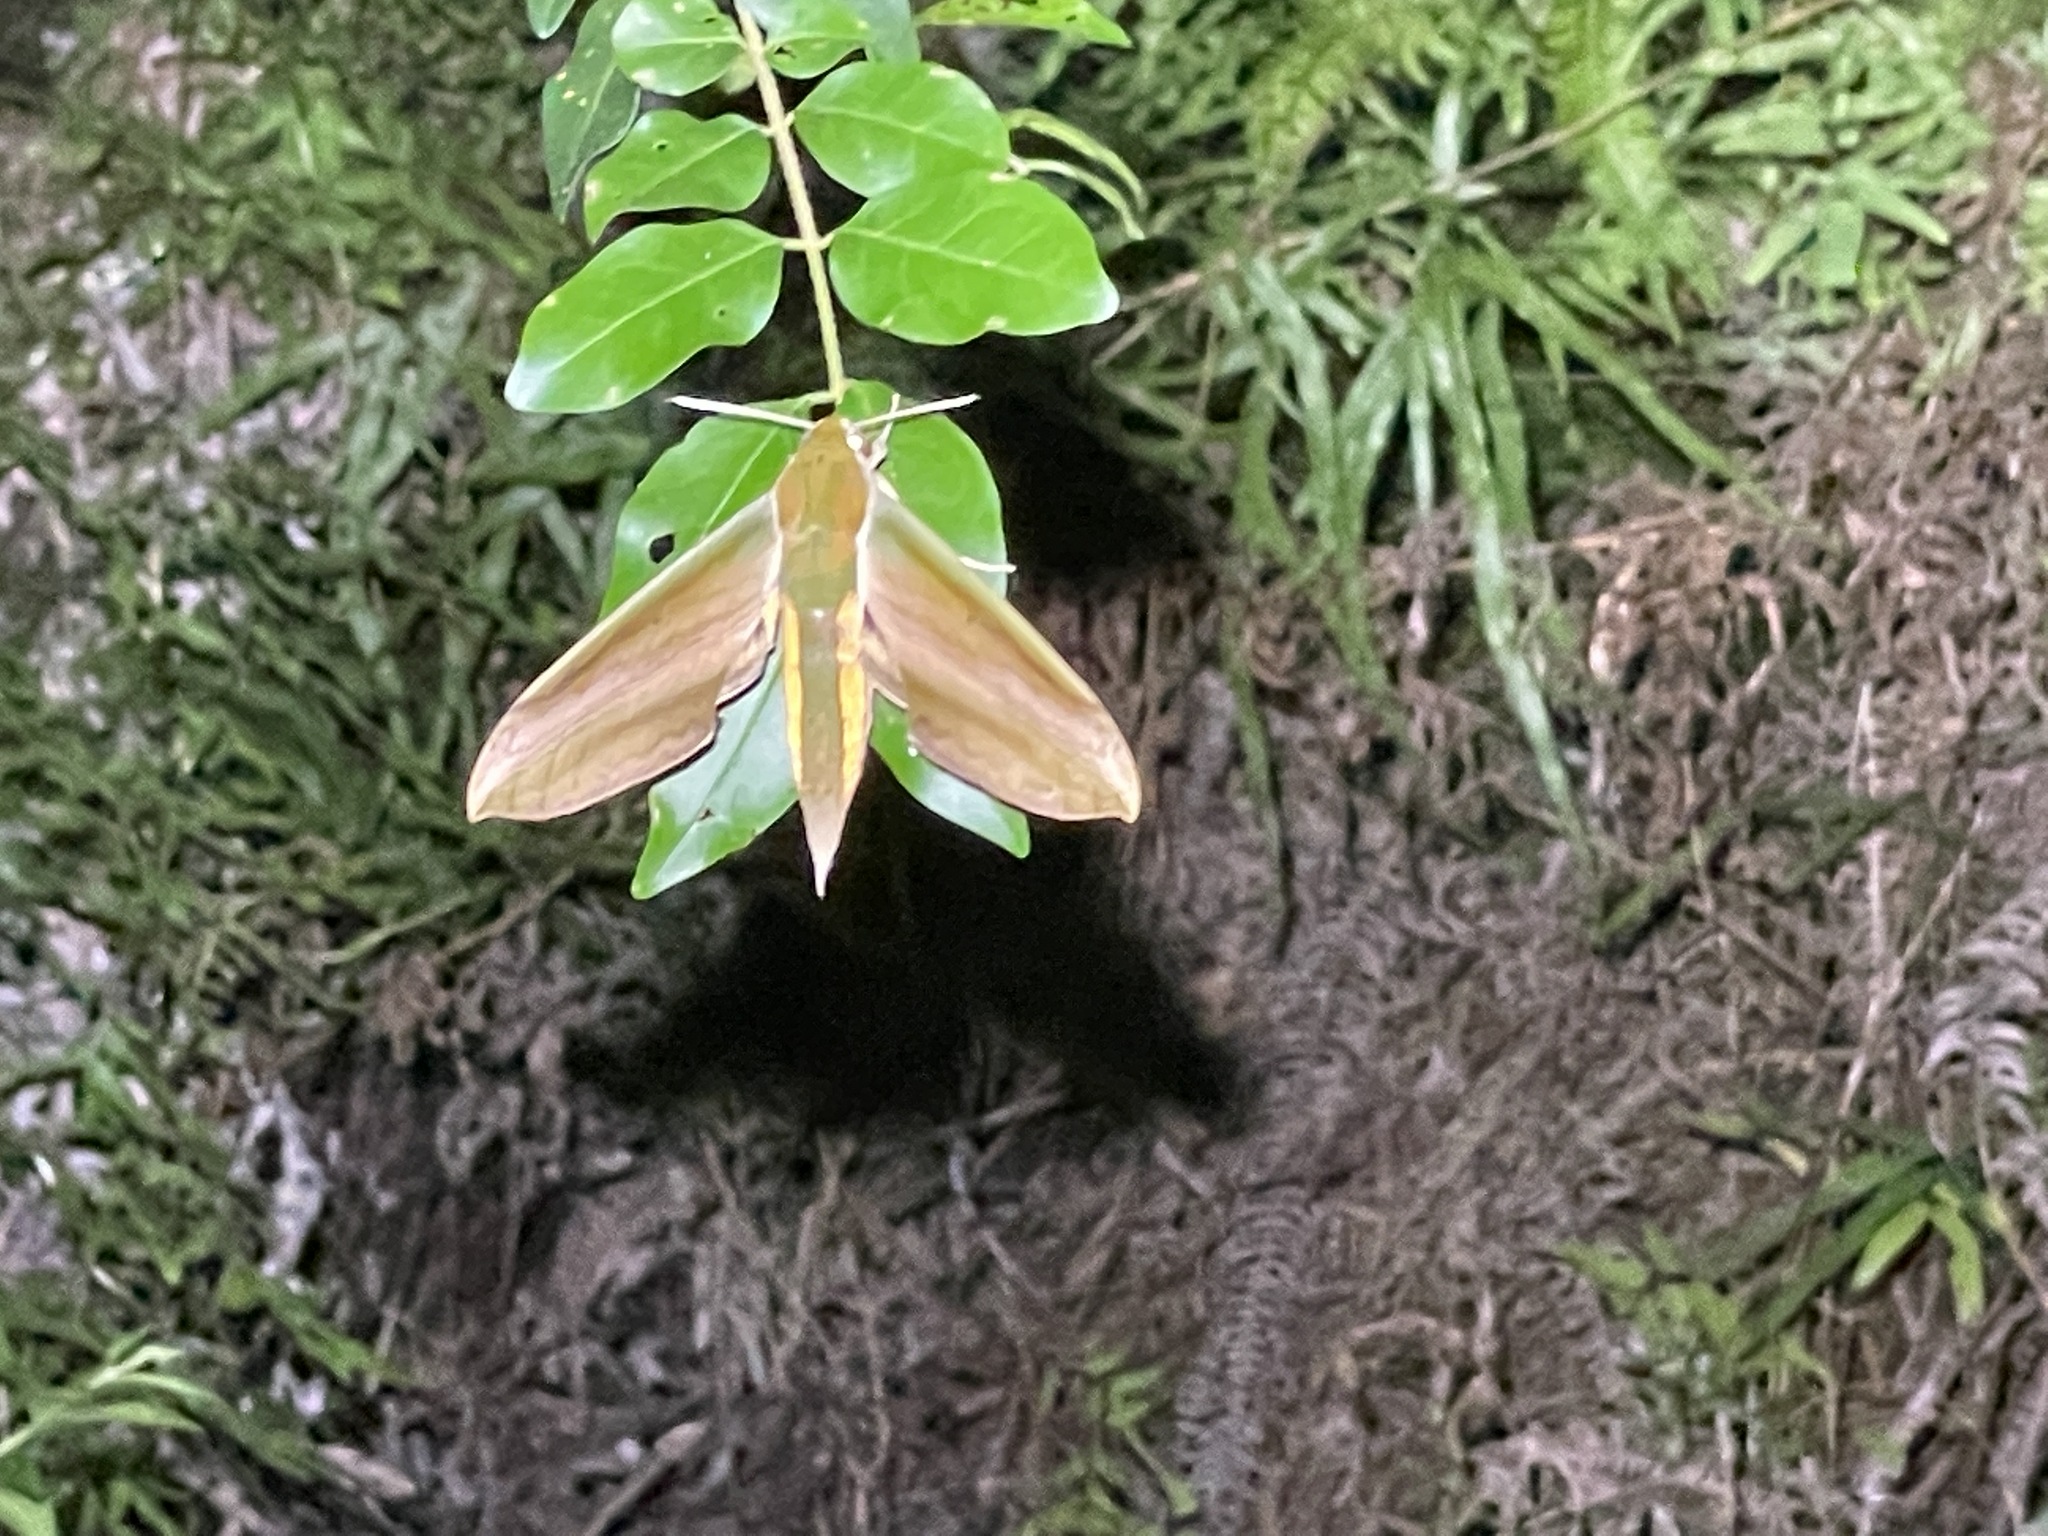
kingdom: Animalia
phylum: Arthropoda
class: Insecta
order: Lepidoptera
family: Sphingidae
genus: Theretra
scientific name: Theretra nessus
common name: Yam hawk moth
